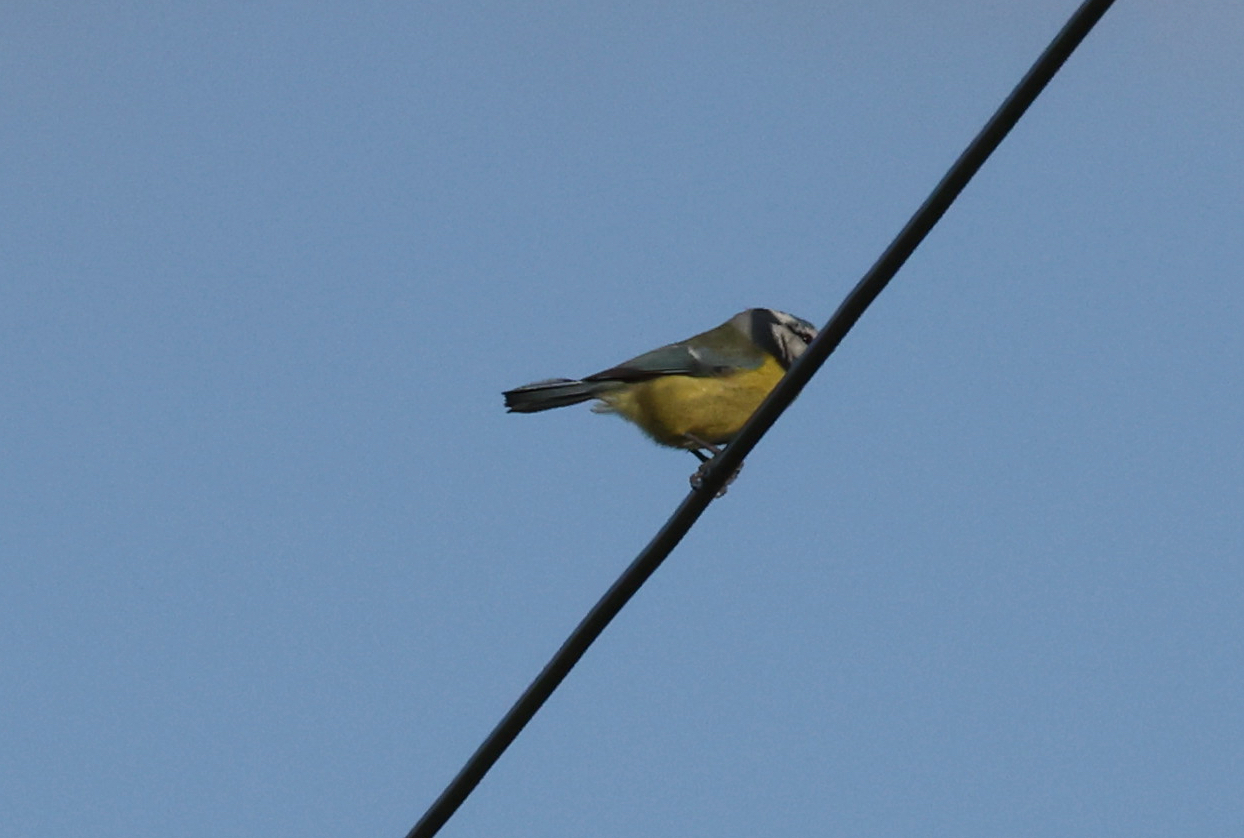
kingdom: Animalia
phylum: Chordata
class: Aves
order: Passeriformes
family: Paridae
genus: Cyanistes
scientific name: Cyanistes caeruleus
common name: Eurasian blue tit
